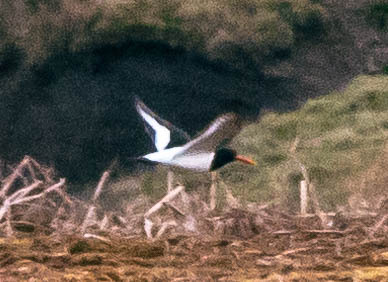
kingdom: Animalia
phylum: Chordata
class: Aves
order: Charadriiformes
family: Haematopodidae
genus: Haematopus
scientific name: Haematopus ostralegus
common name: Eurasian oystercatcher
